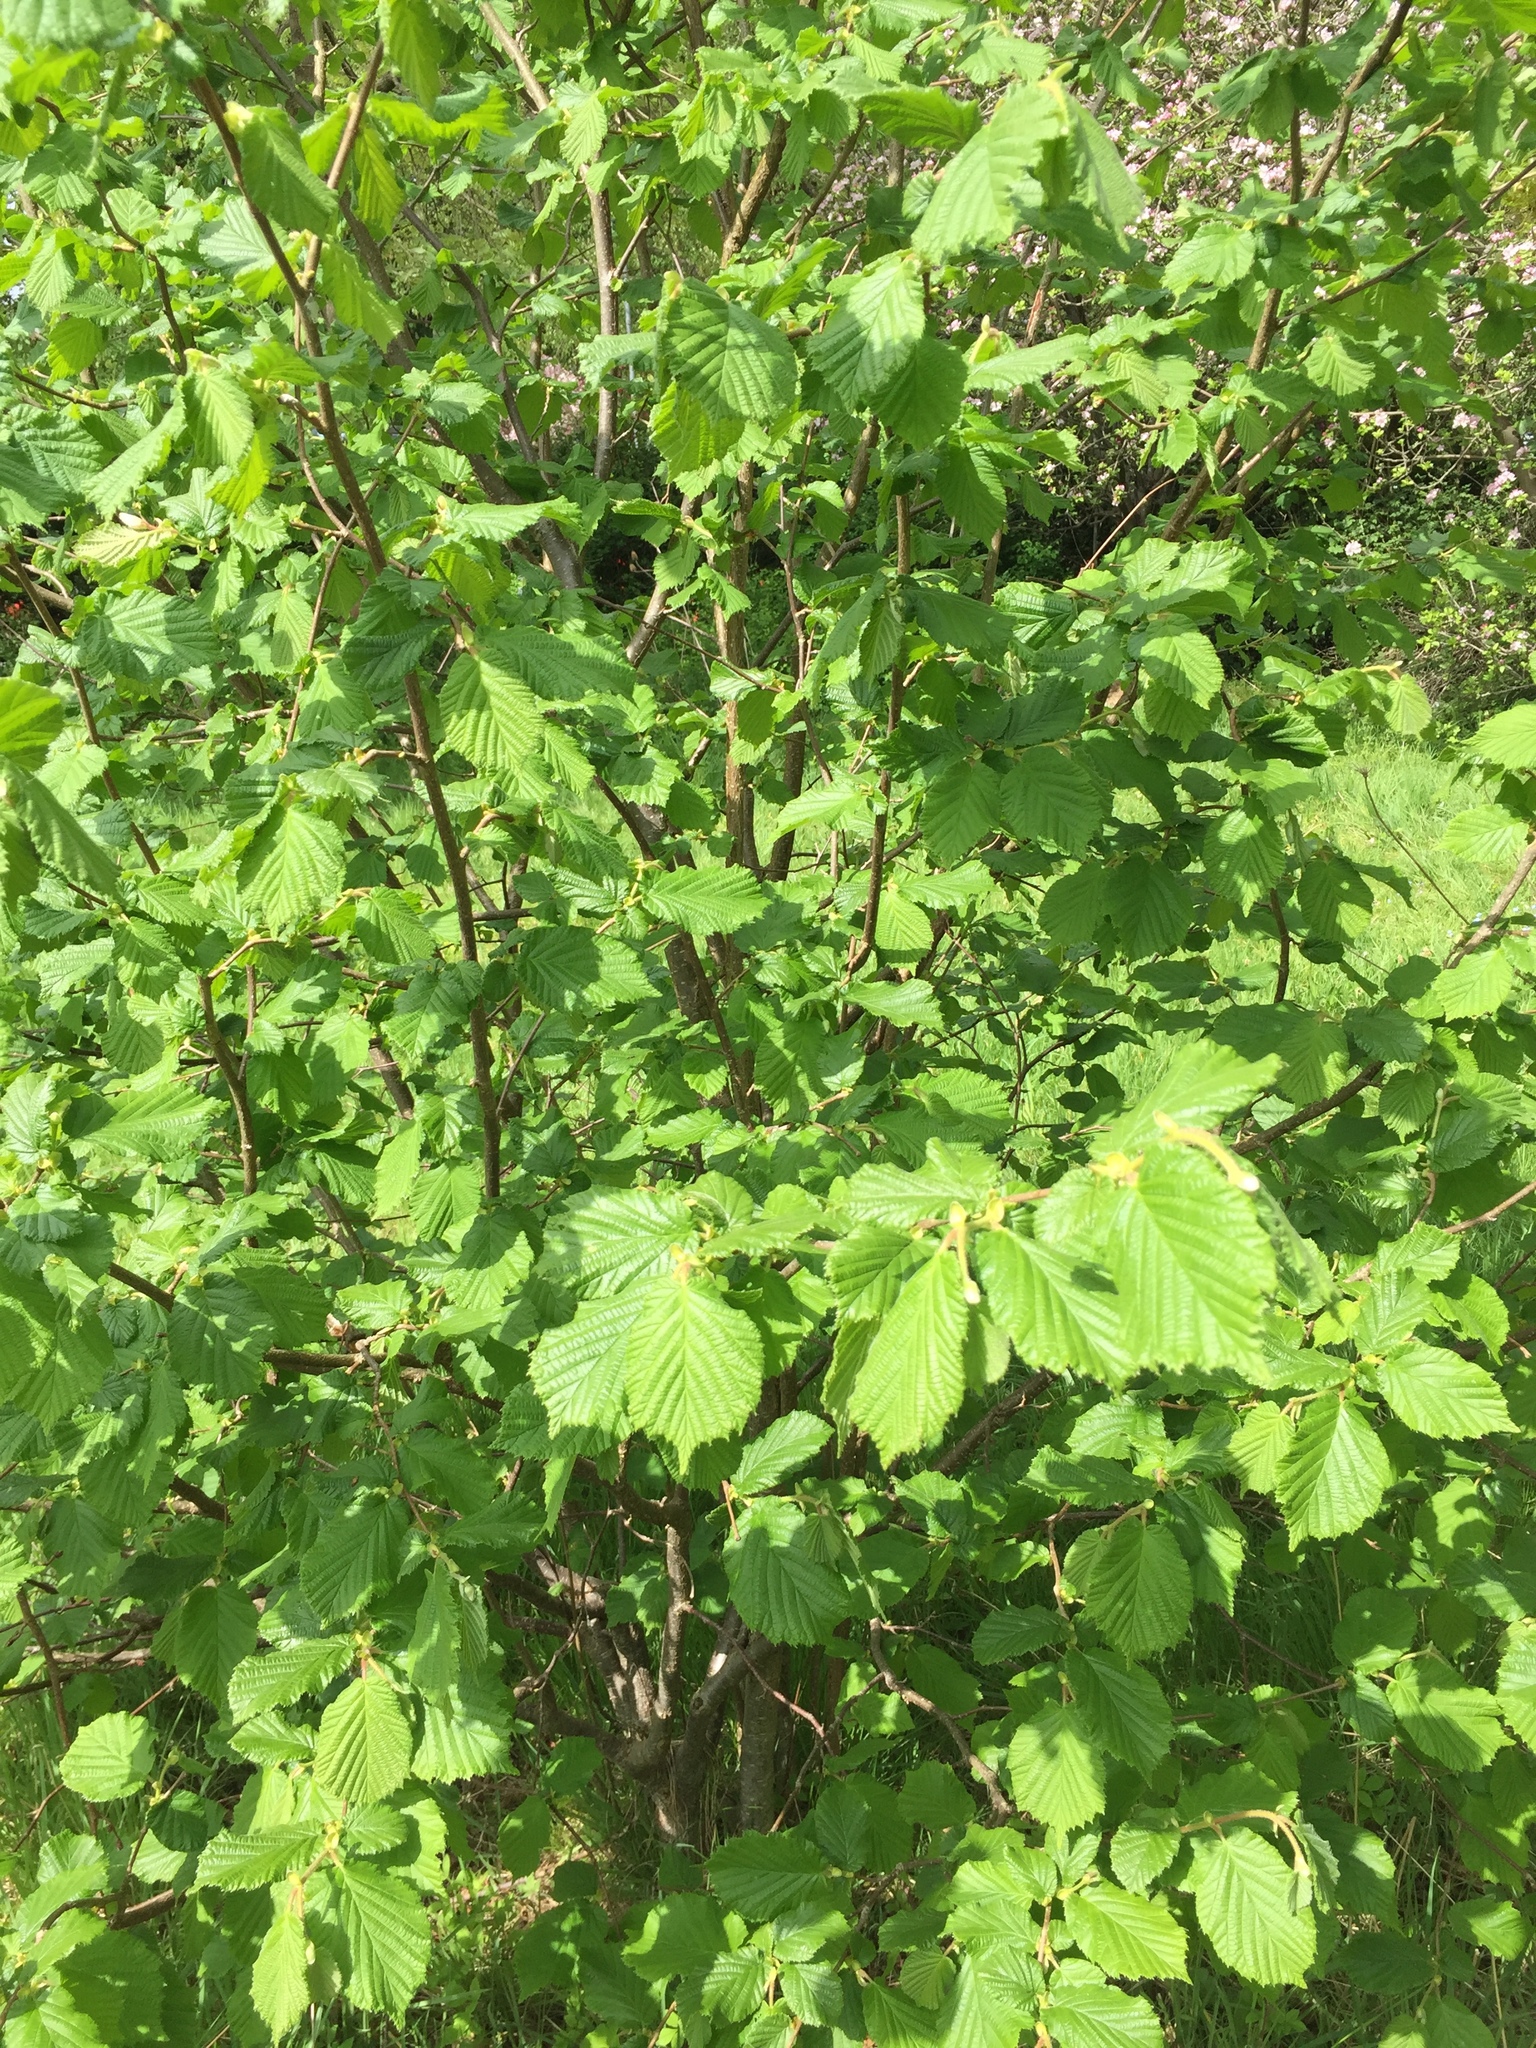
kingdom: Plantae
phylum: Tracheophyta
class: Magnoliopsida
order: Fagales
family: Betulaceae
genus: Corylus
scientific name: Corylus avellana
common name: European hazel
